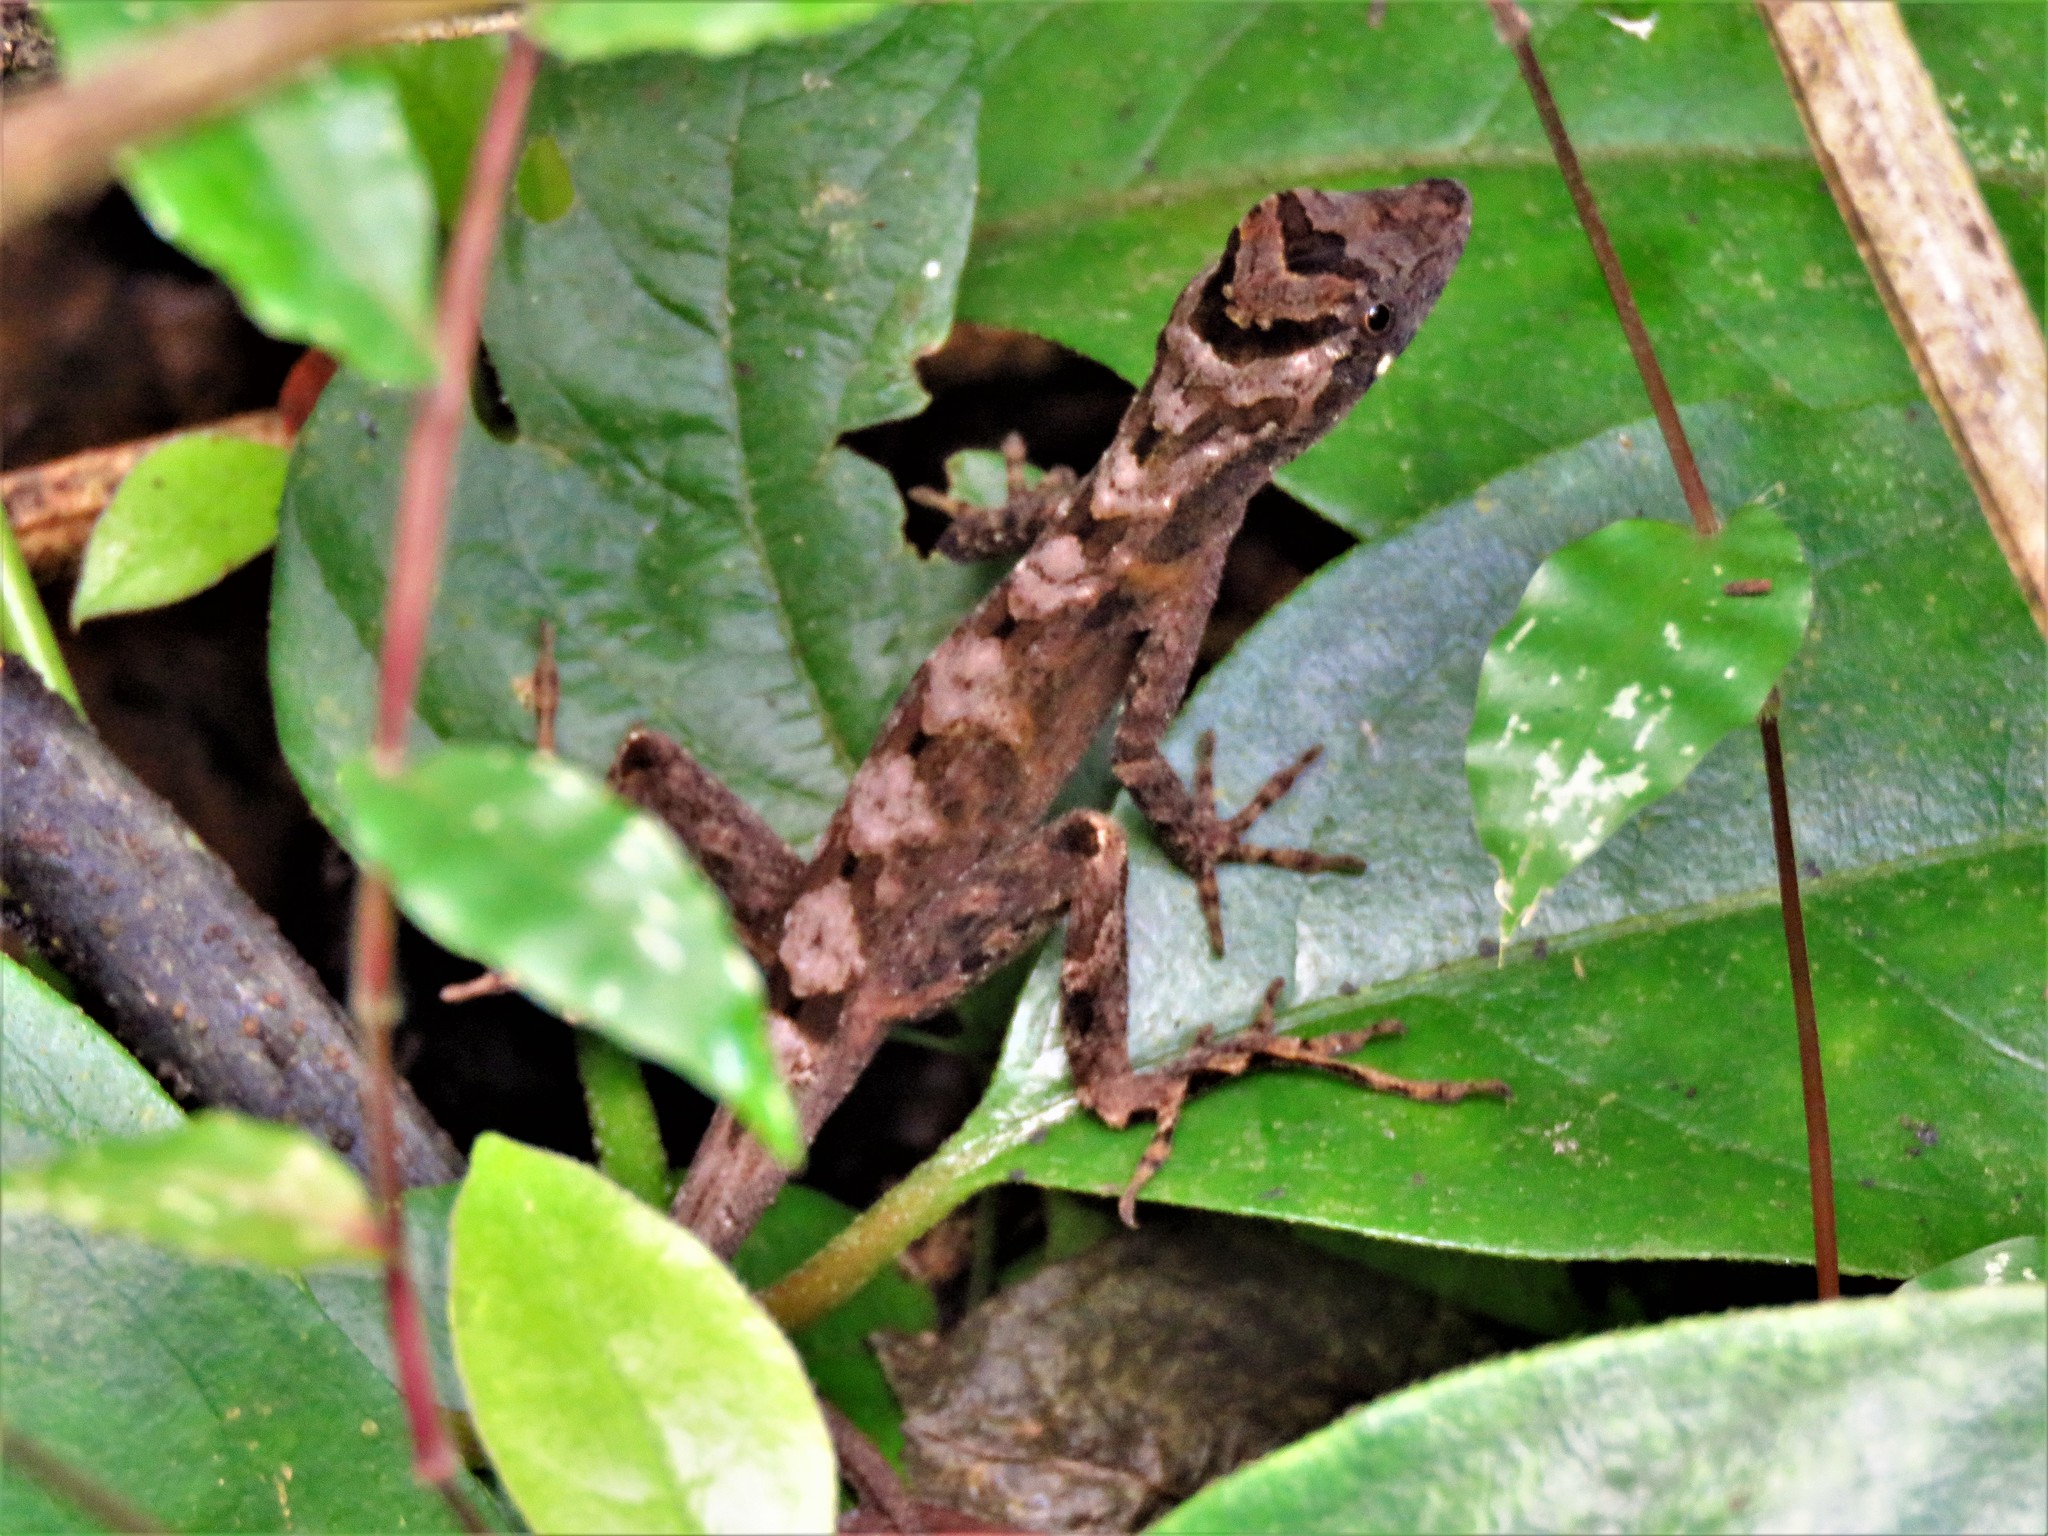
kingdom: Animalia
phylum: Chordata
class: Squamata
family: Dactyloidae
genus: Anolis
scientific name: Anolis lemurinus
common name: Ghost anole
